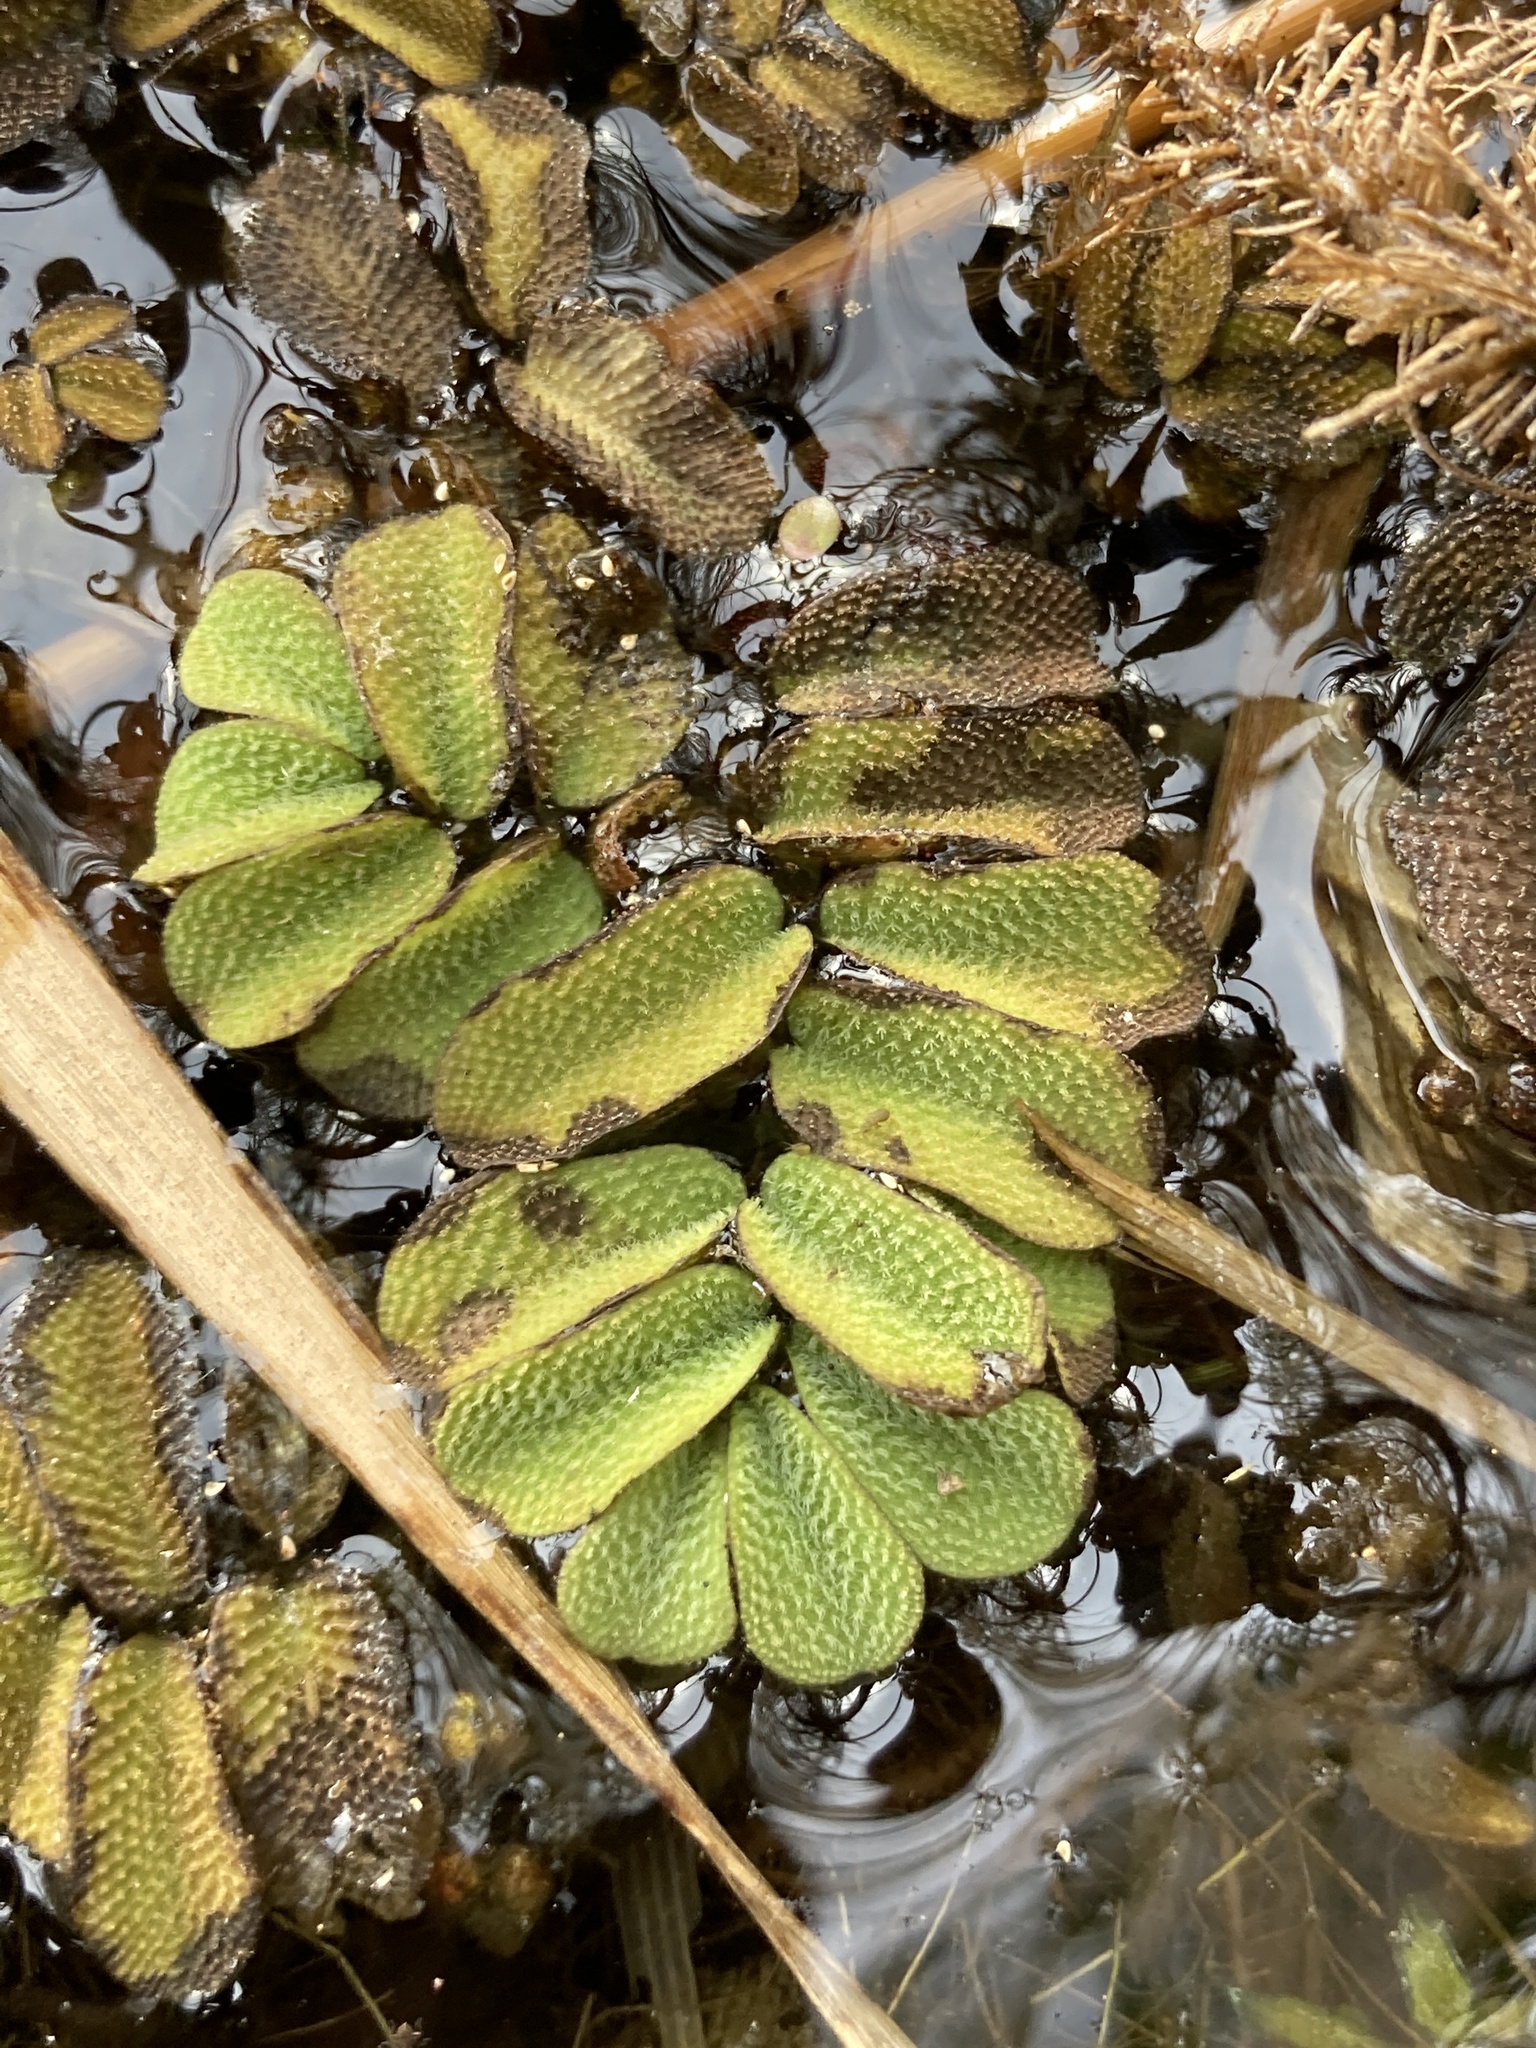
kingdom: Plantae
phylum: Tracheophyta
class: Polypodiopsida
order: Salviniales
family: Salviniaceae
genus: Salvinia
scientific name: Salvinia natans
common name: Floating fern
